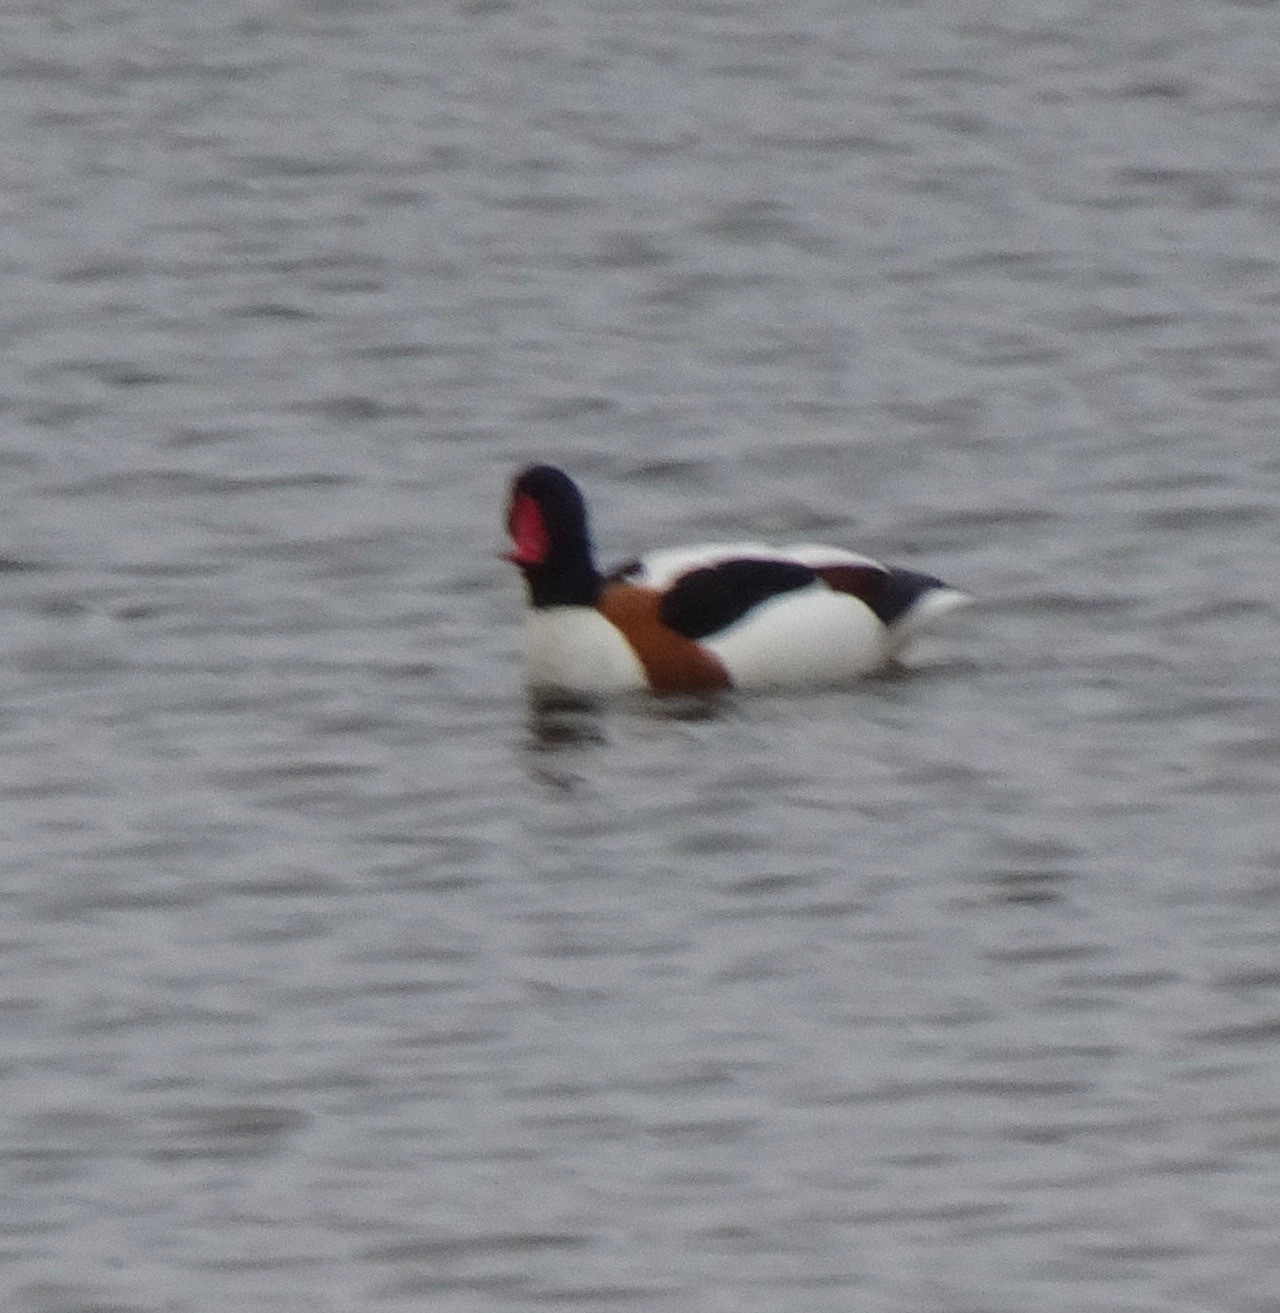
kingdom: Animalia
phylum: Chordata
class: Aves
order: Anseriformes
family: Anatidae
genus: Tadorna
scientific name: Tadorna tadorna
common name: Common shelduck
